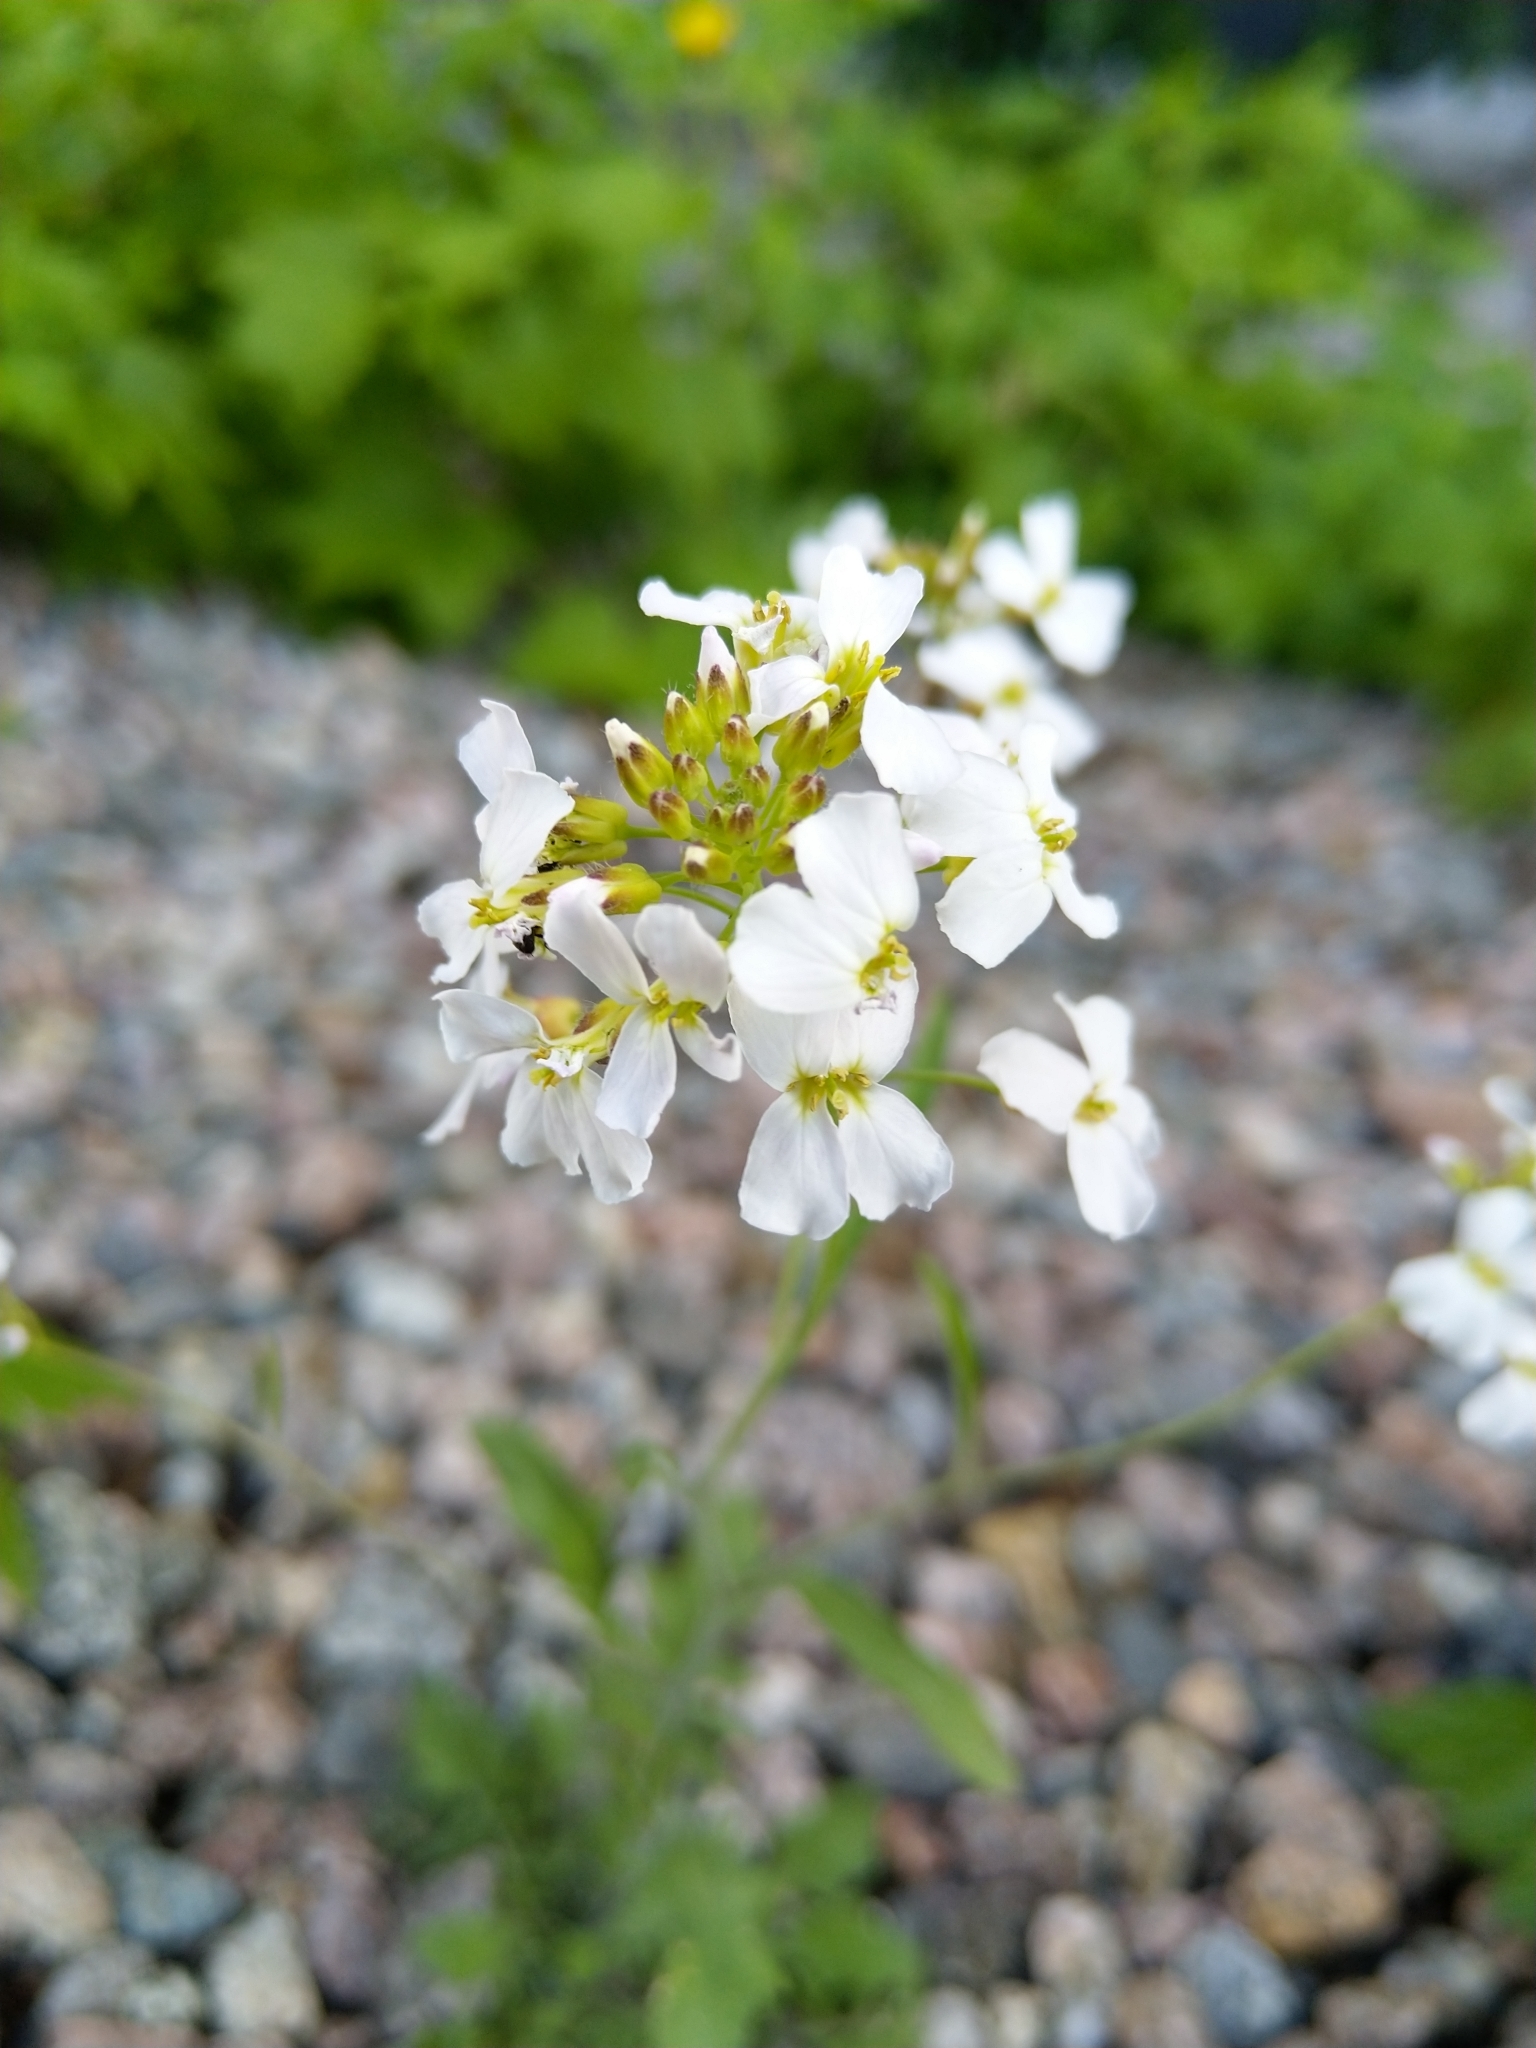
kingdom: Plantae
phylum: Tracheophyta
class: Magnoliopsida
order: Brassicales
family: Brassicaceae
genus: Arabidopsis
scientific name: Arabidopsis arenosa
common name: Sand rock-cress
